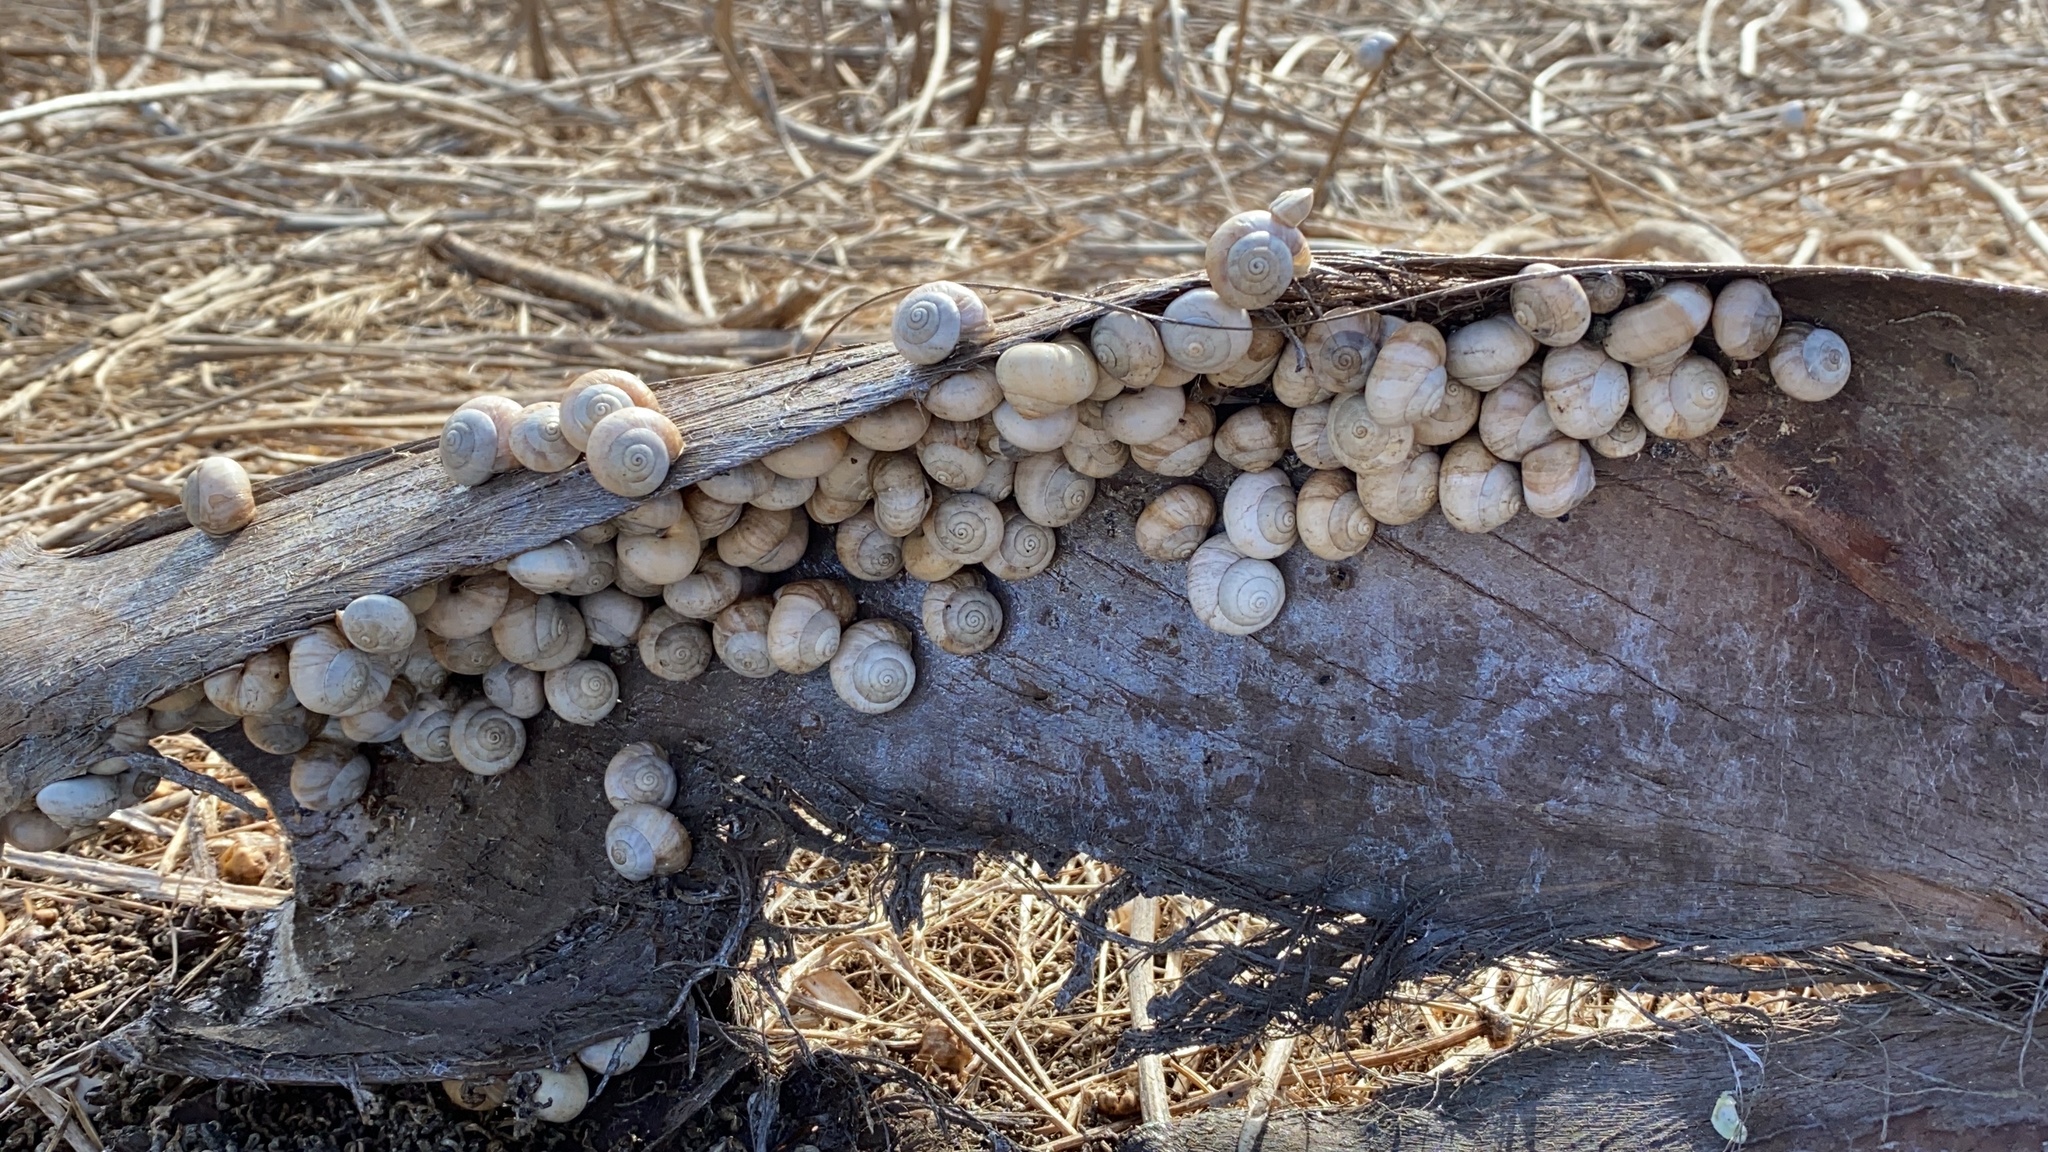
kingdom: Animalia
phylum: Mollusca
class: Gastropoda
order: Stylommatophora
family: Helicidae
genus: Theba
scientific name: Theba pisana
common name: White snail
